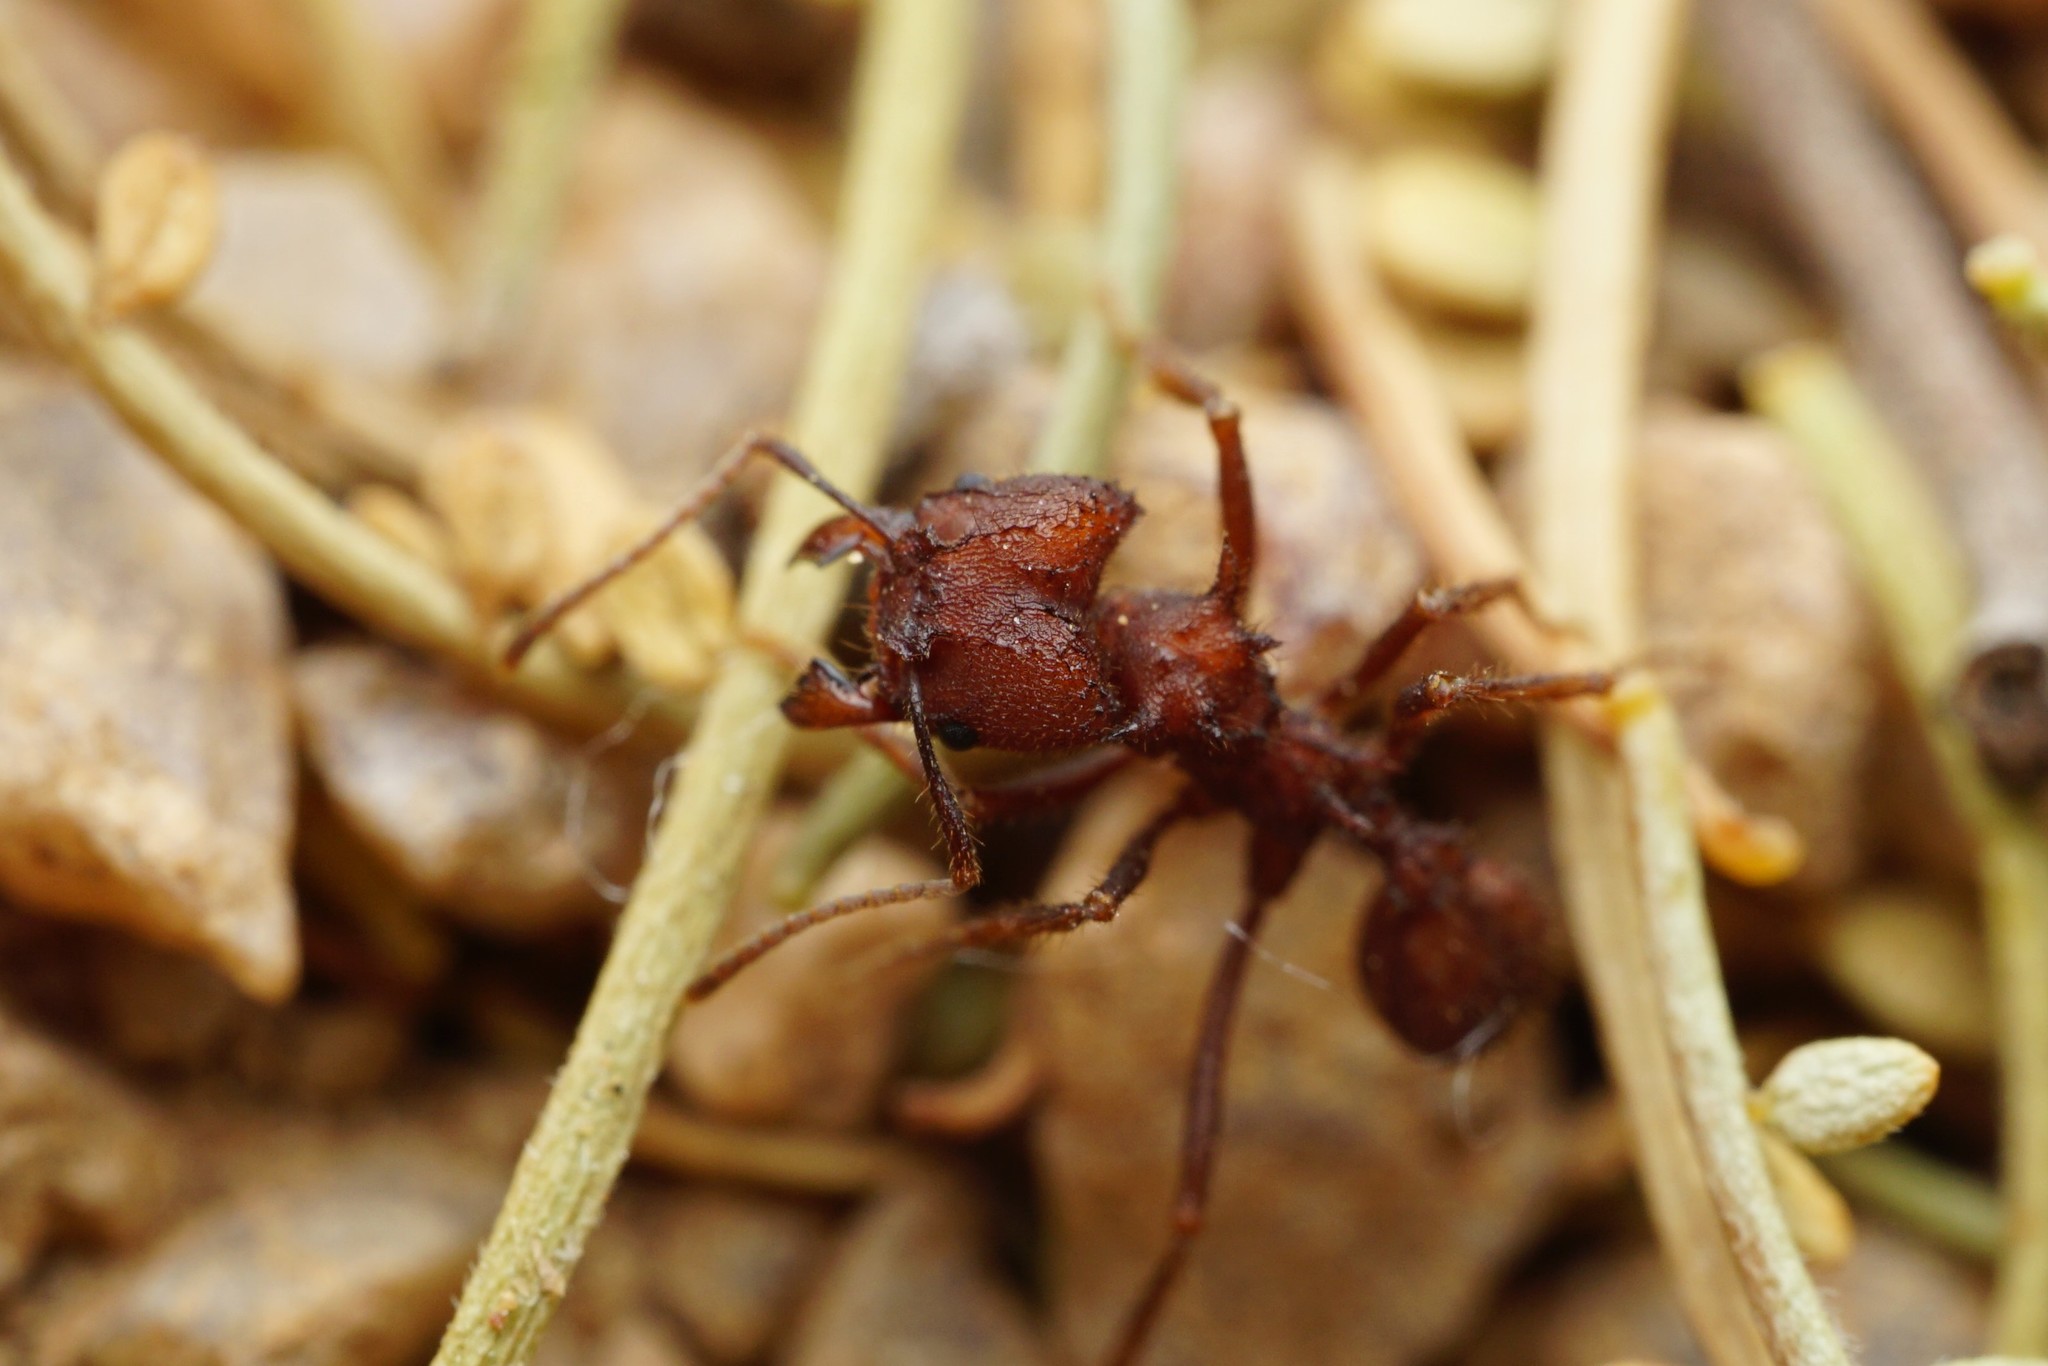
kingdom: Animalia
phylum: Arthropoda
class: Insecta
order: Hymenoptera
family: Formicidae
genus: Acromyrmex
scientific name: Acromyrmex versicolor
